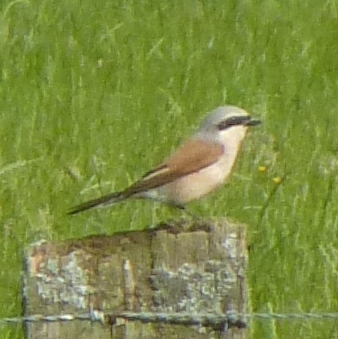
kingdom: Animalia
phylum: Chordata
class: Aves
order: Passeriformes
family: Laniidae
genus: Lanius
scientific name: Lanius collurio
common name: Red-backed shrike
